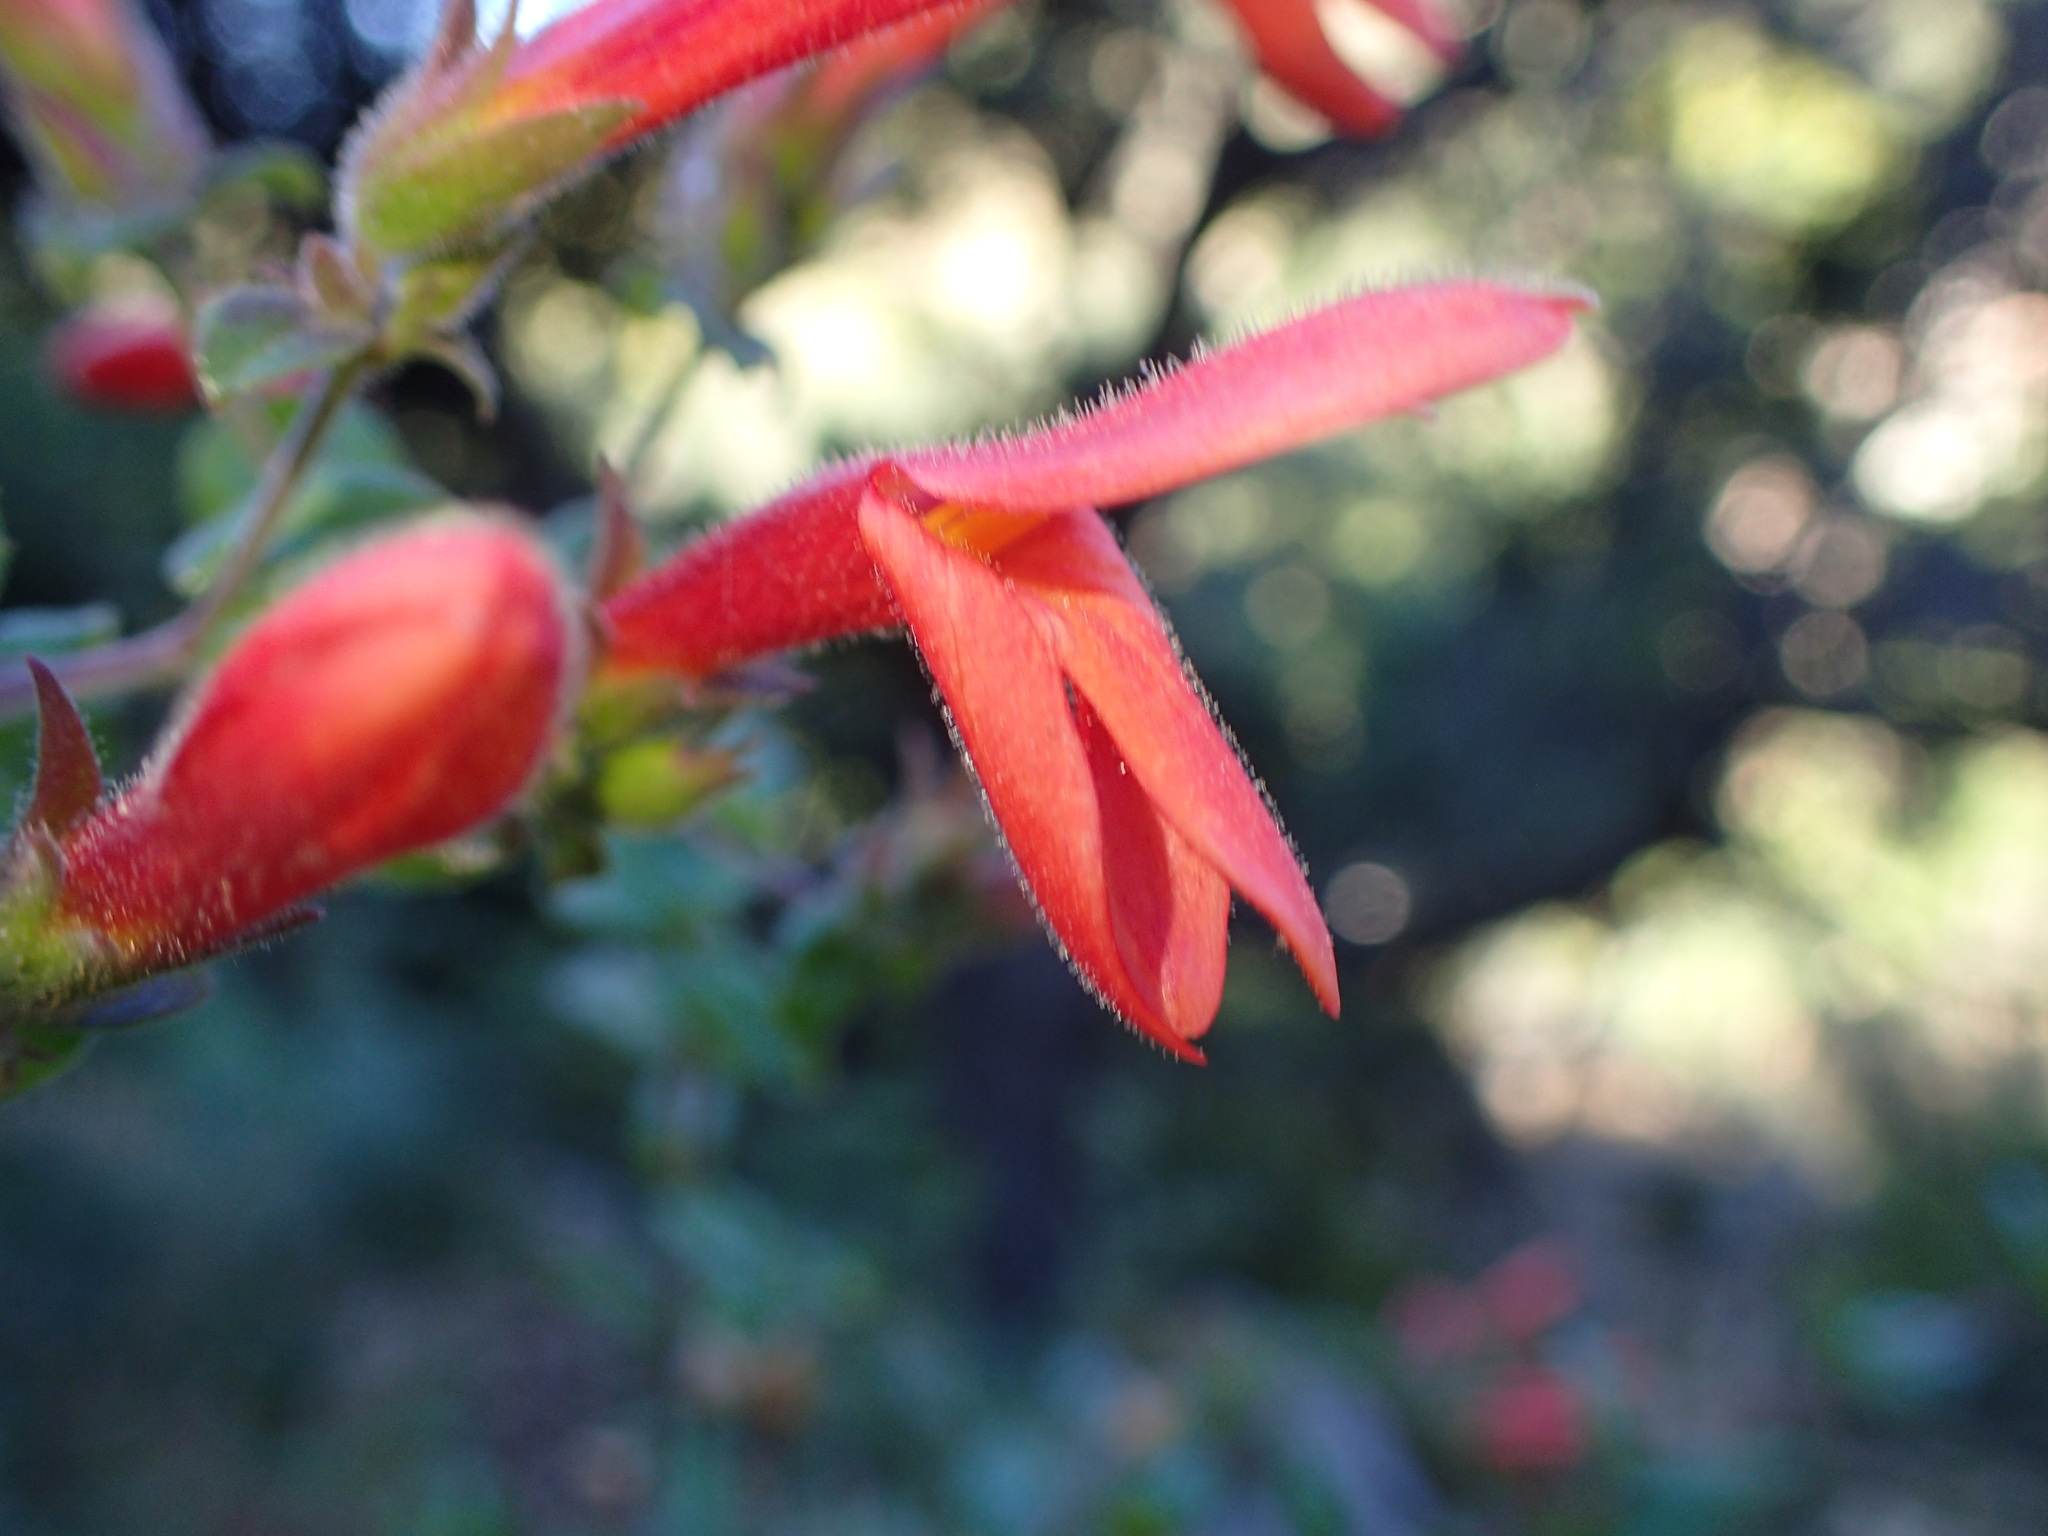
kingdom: Plantae
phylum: Tracheophyta
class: Magnoliopsida
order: Lamiales
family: Plantaginaceae
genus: Keckiella
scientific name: Keckiella cordifolia
